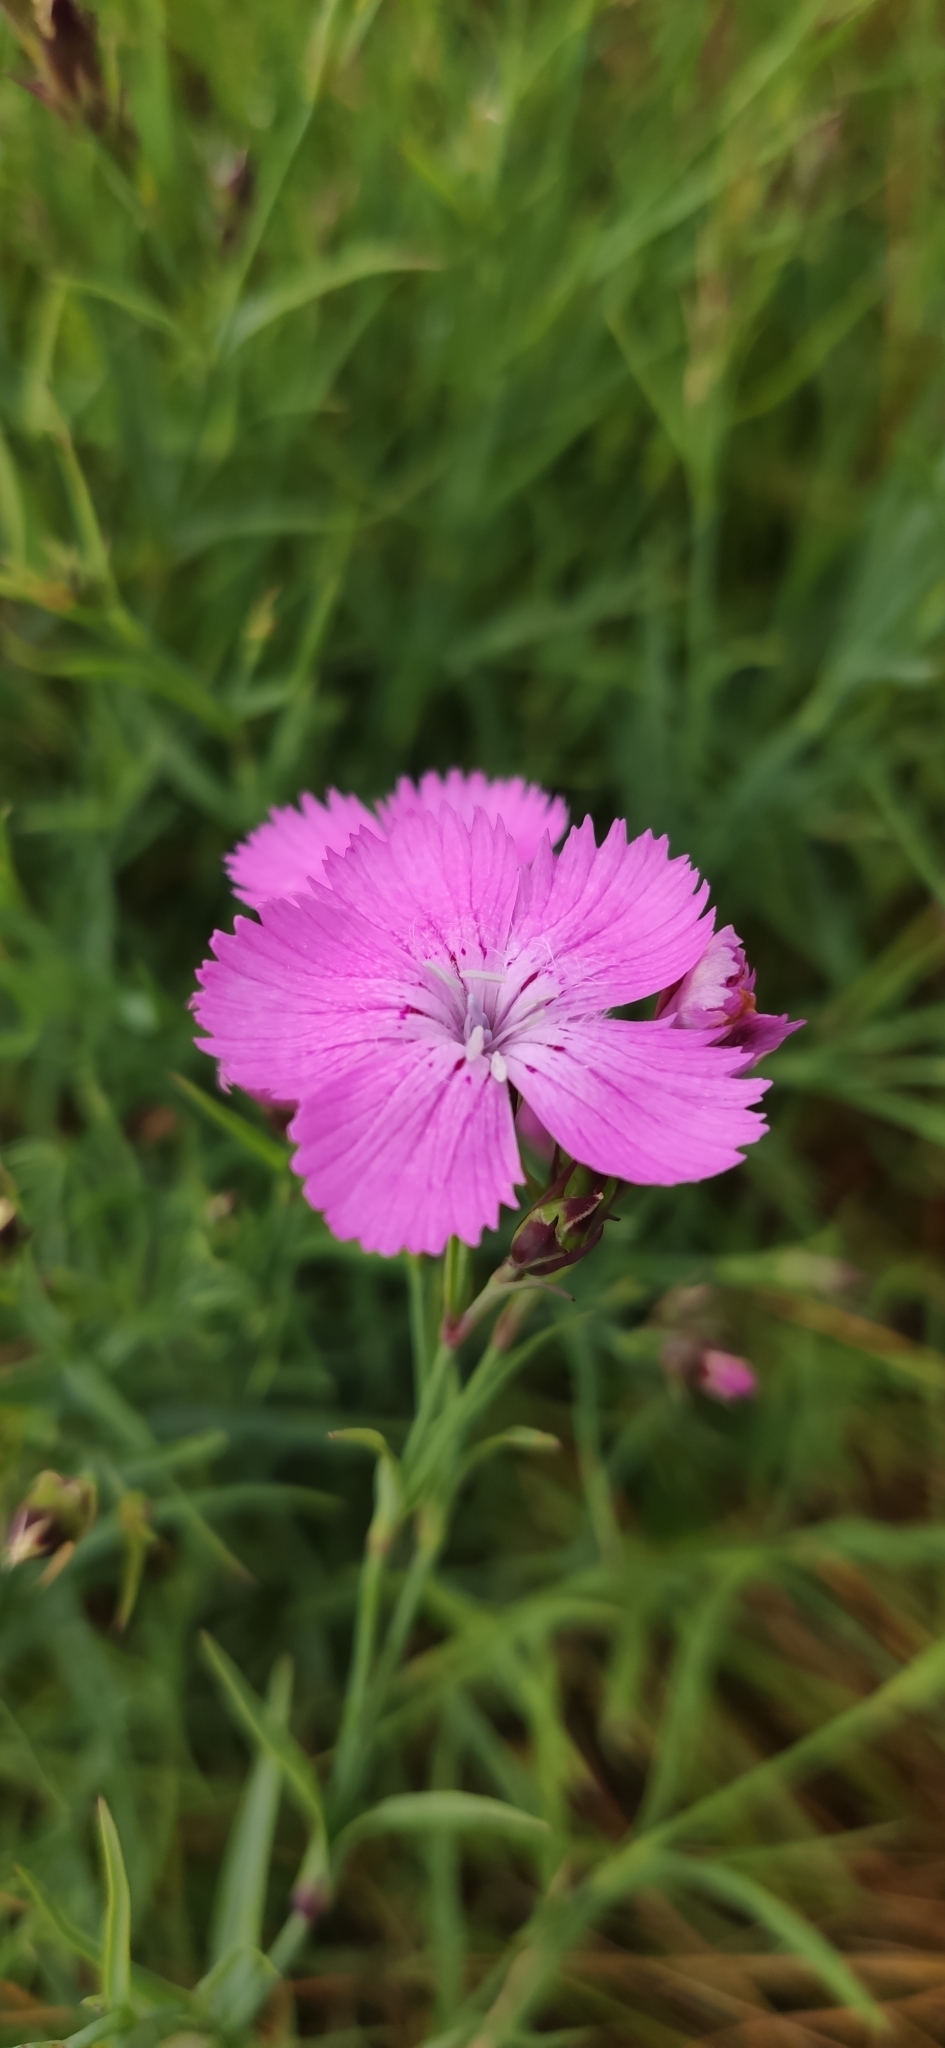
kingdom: Plantae
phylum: Tracheophyta
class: Magnoliopsida
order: Caryophyllales
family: Caryophyllaceae
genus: Dianthus
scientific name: Dianthus chinensis
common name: Rainbow pink
